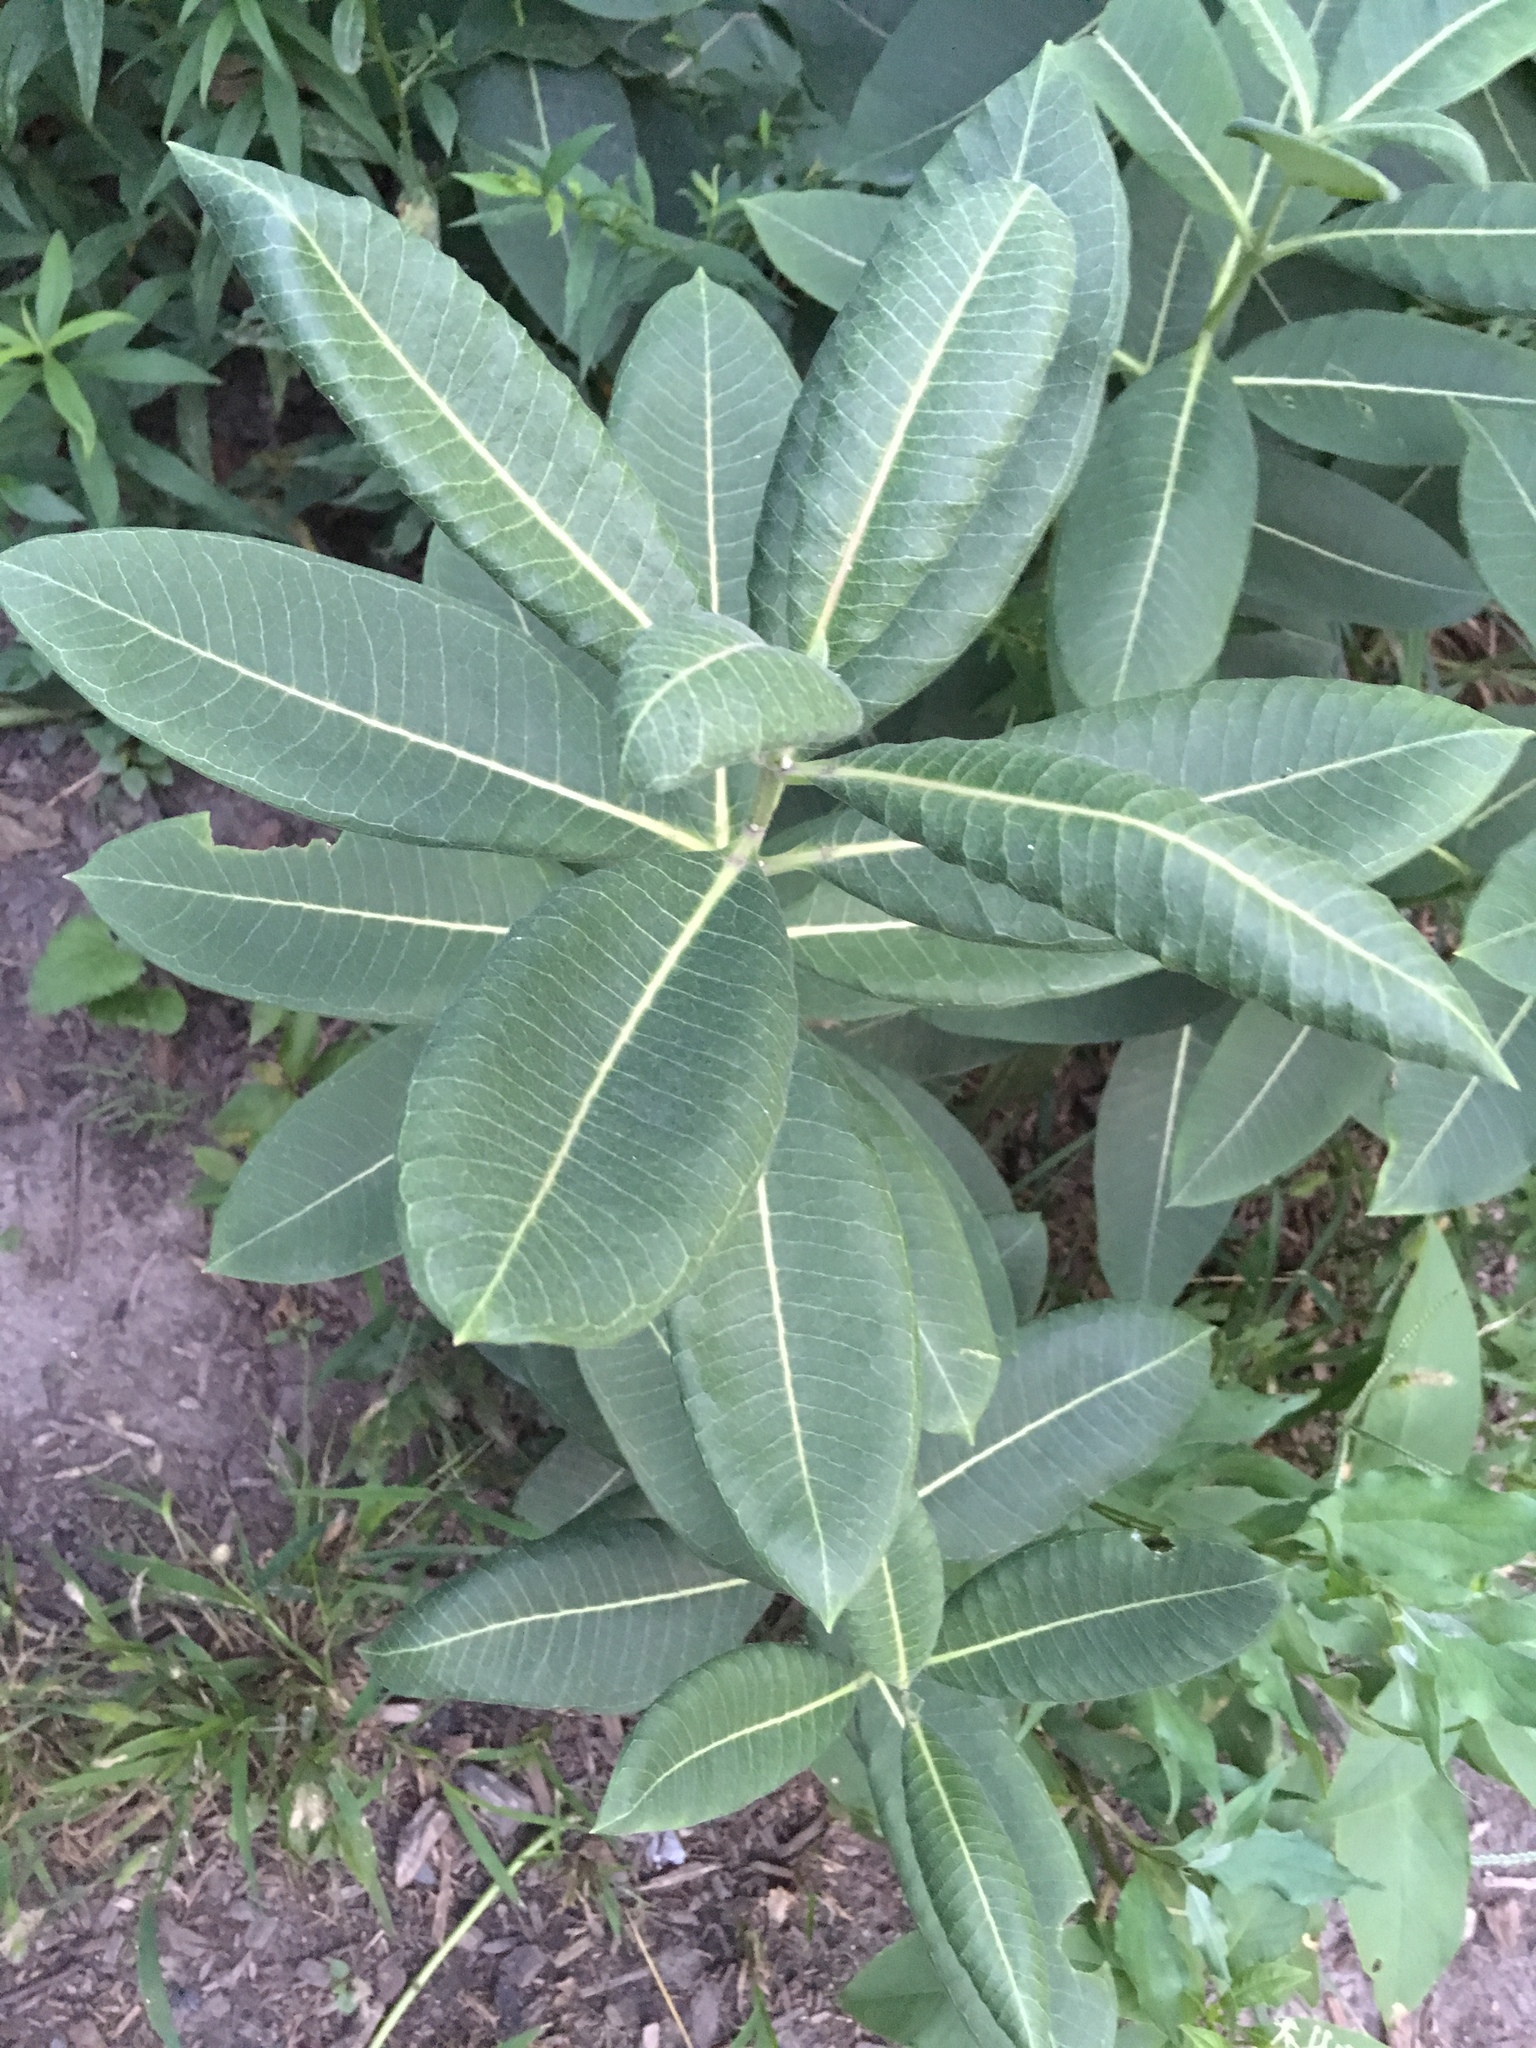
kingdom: Plantae
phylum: Tracheophyta
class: Magnoliopsida
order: Gentianales
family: Apocynaceae
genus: Asclepias
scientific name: Asclepias syriaca
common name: Common milkweed
